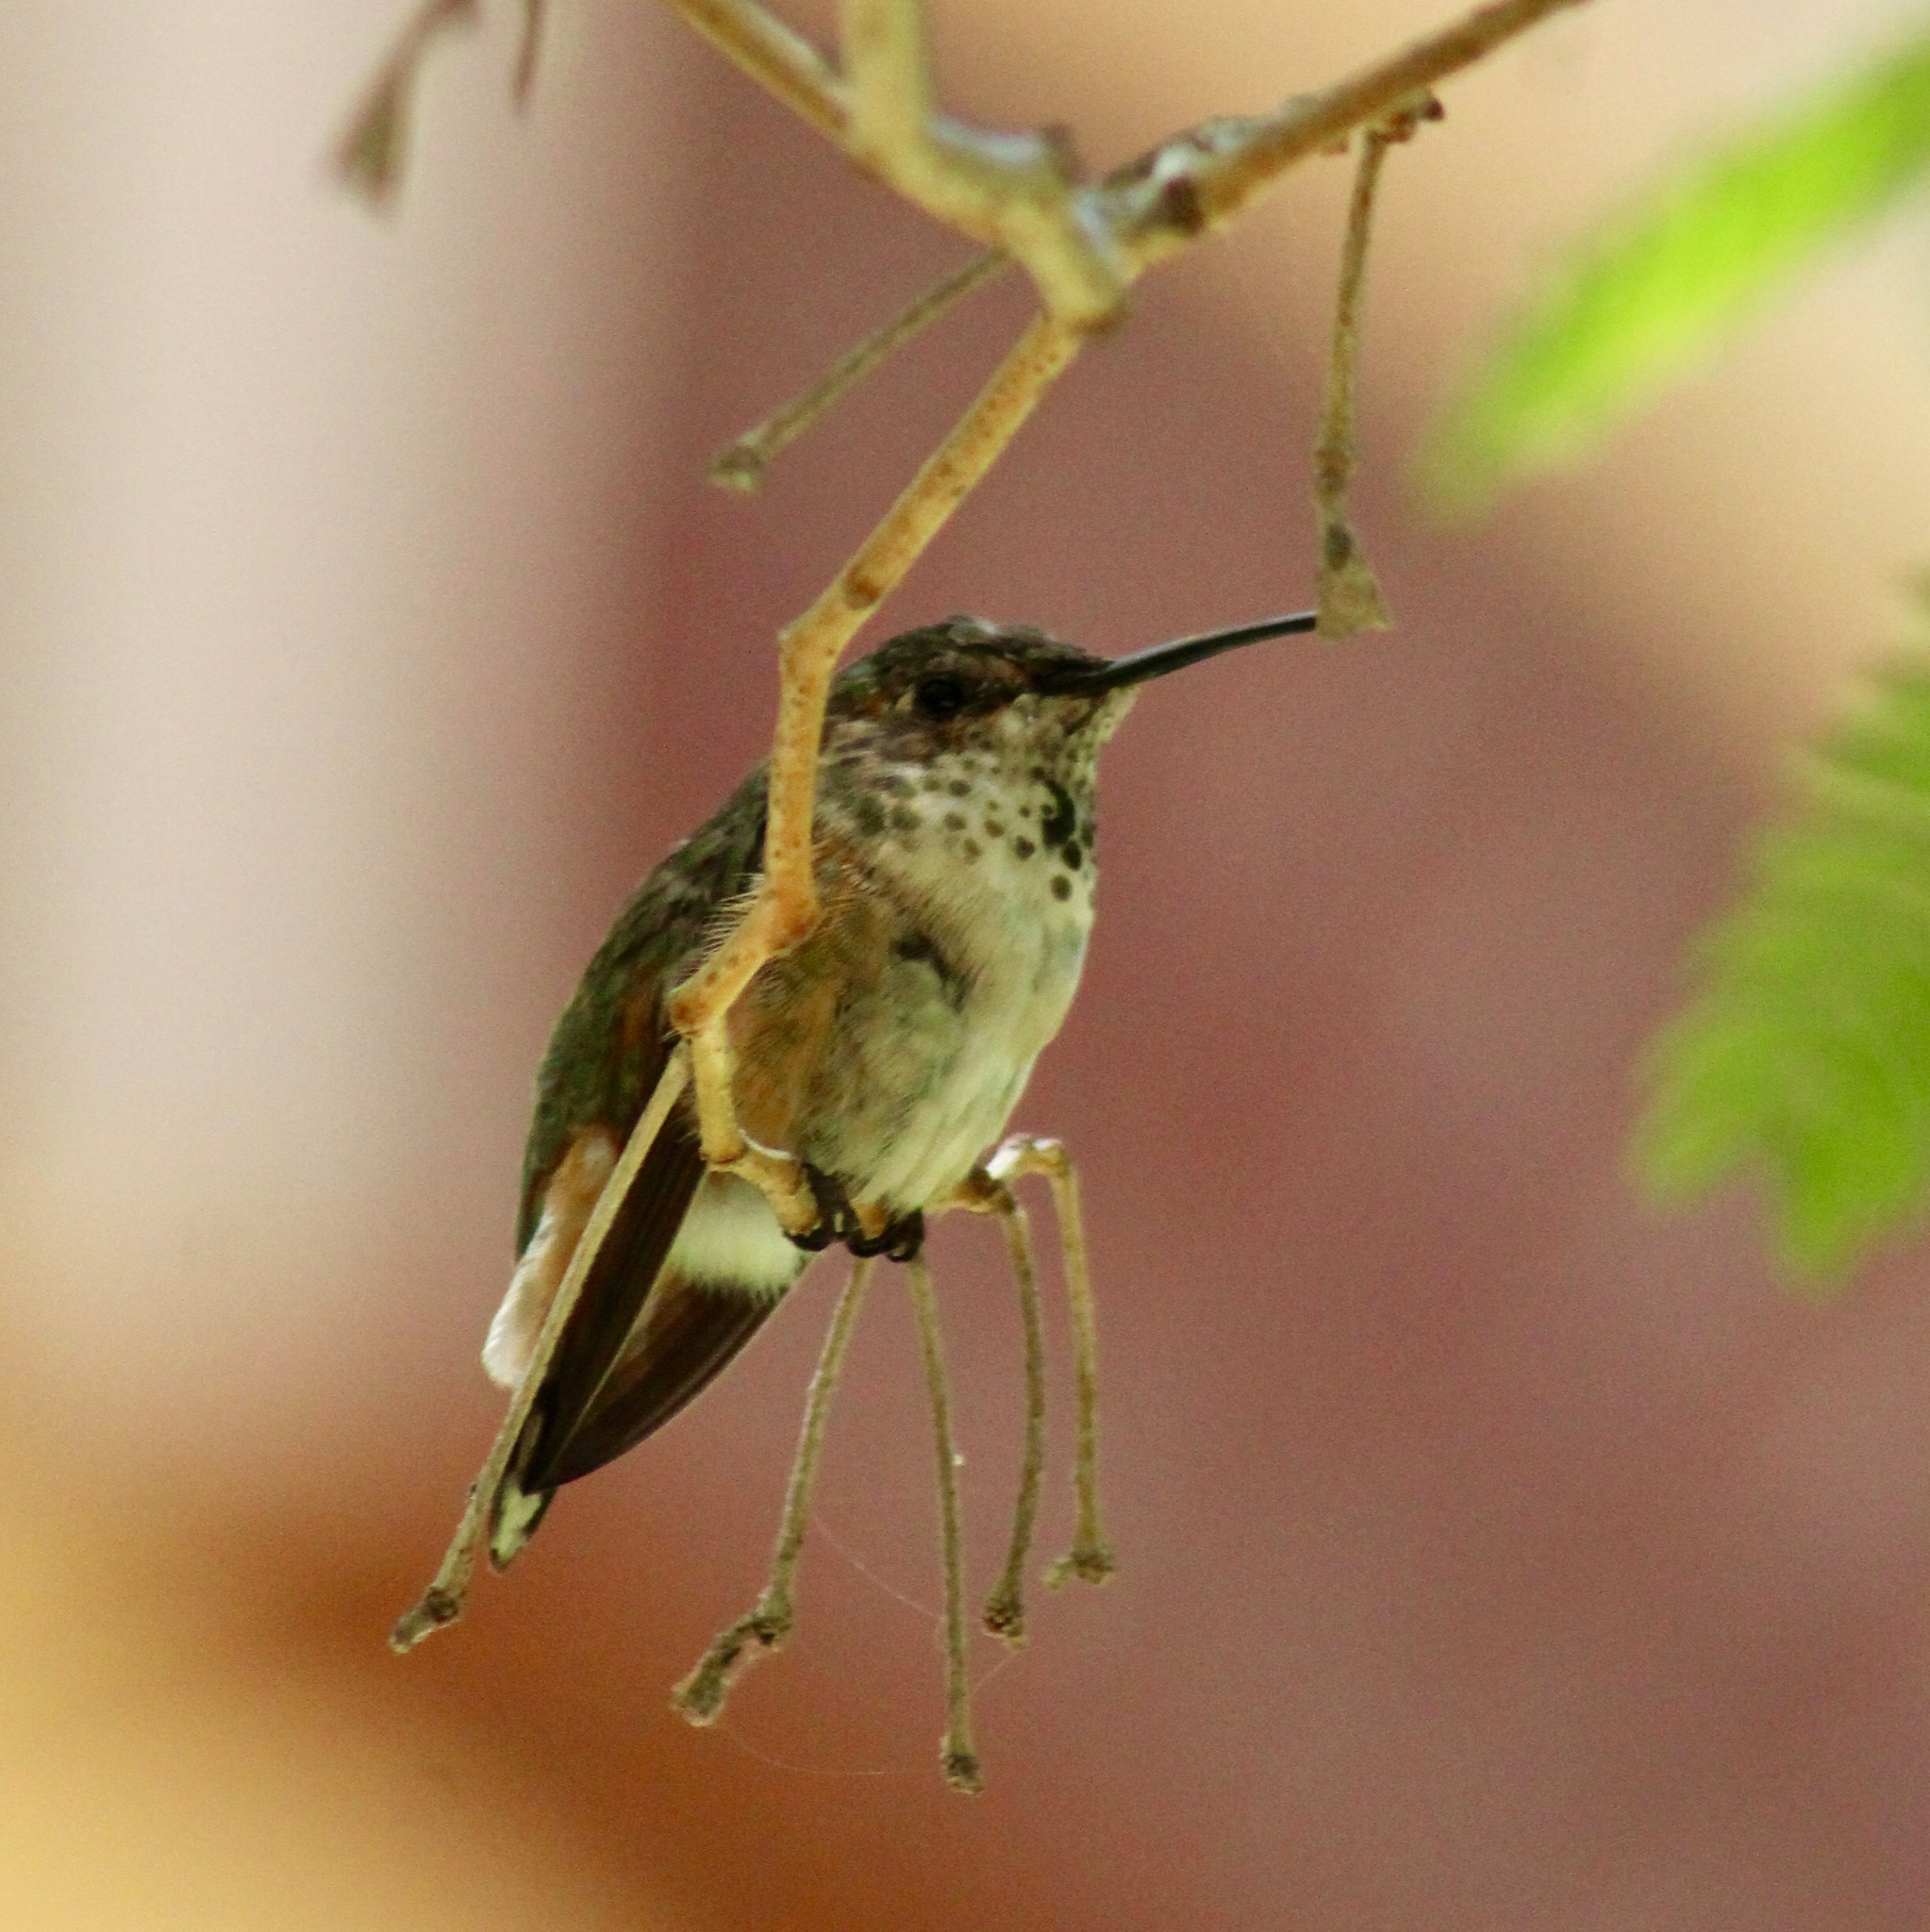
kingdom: Animalia
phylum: Chordata
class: Aves
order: Apodiformes
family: Trochilidae
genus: Selasphorus
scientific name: Selasphorus sasin
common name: Allen's hummingbird
